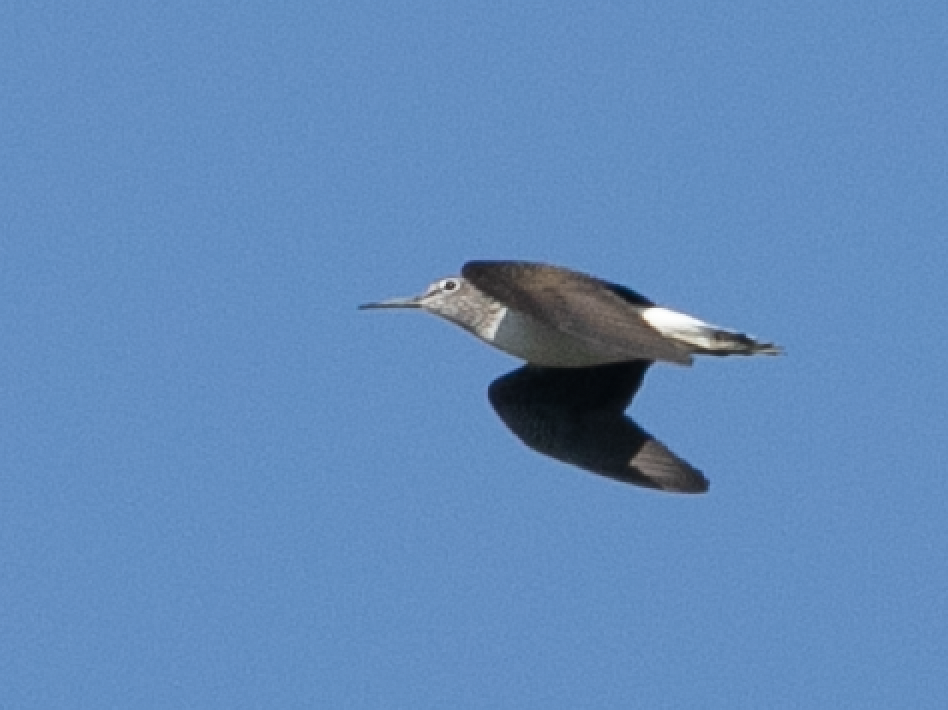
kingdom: Animalia
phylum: Chordata
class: Aves
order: Charadriiformes
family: Scolopacidae
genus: Tringa
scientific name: Tringa ochropus
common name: Green sandpiper
